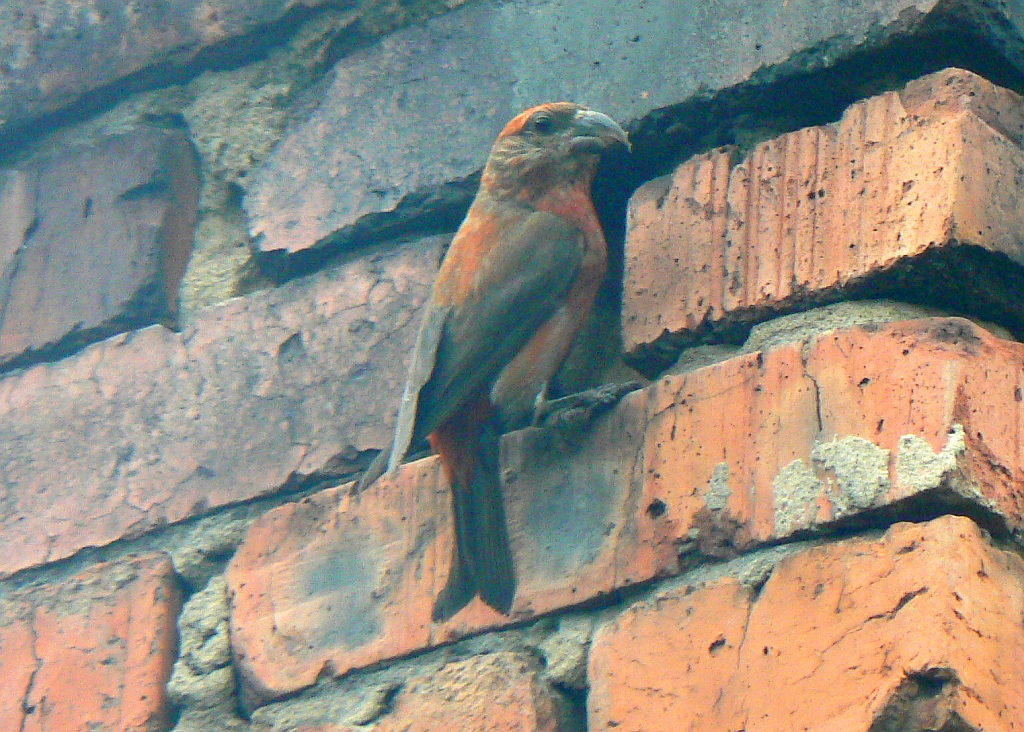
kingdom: Animalia
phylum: Chordata
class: Aves
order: Passeriformes
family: Fringillidae
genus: Loxia
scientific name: Loxia curvirostra
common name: Red crossbill
